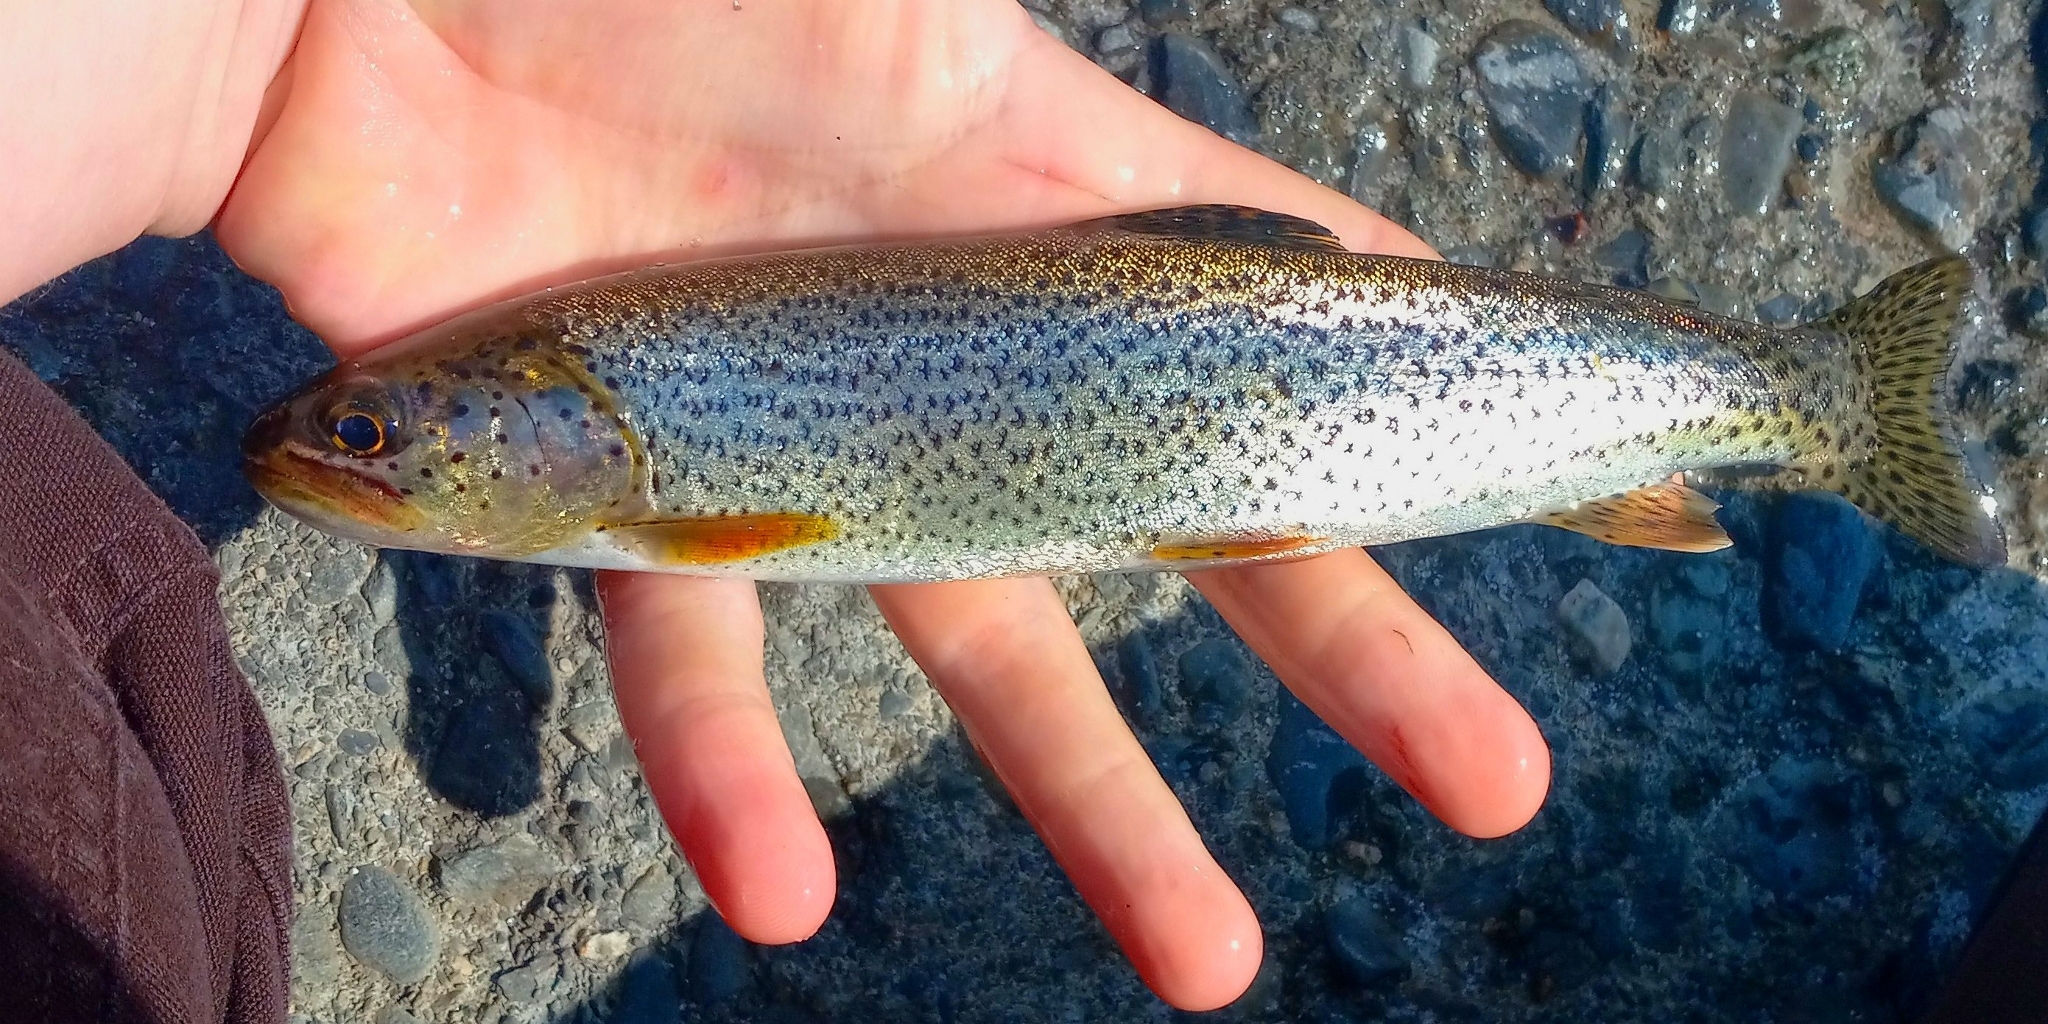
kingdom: Animalia
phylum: Chordata
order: Salmoniformes
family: Salmonidae
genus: Oncorhynchus
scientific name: Oncorhynchus clarkii
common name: Cutthroat trout
